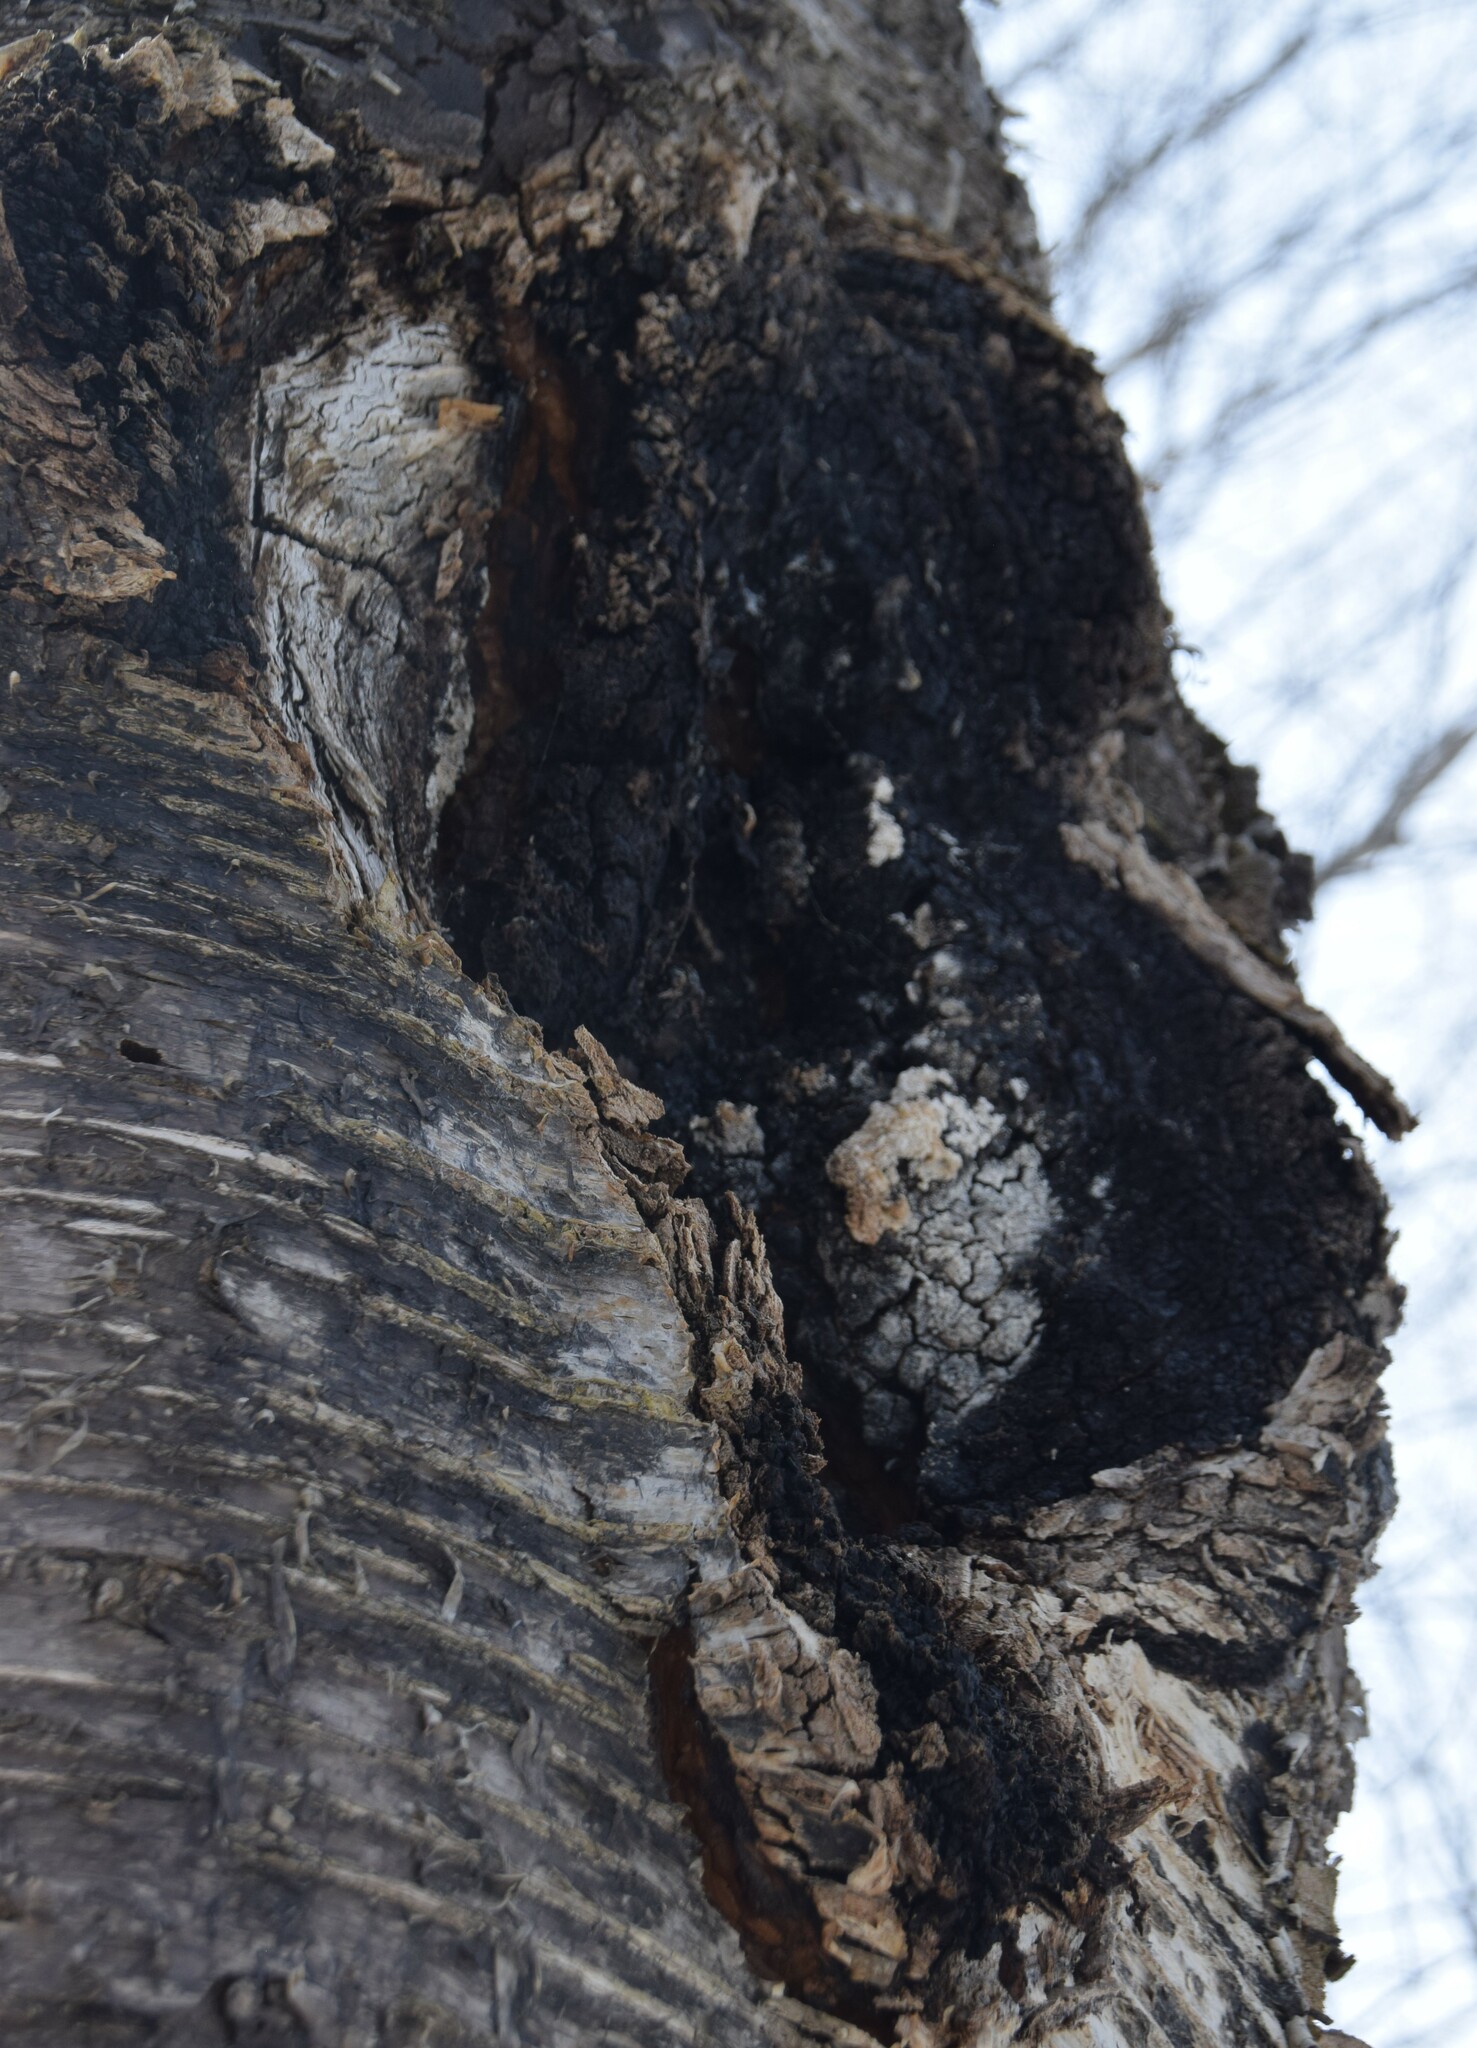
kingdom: Fungi
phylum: Basidiomycota
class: Agaricomycetes
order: Hymenochaetales
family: Hymenochaetaceae
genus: Inonotus
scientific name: Inonotus obliquus
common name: Chaga
